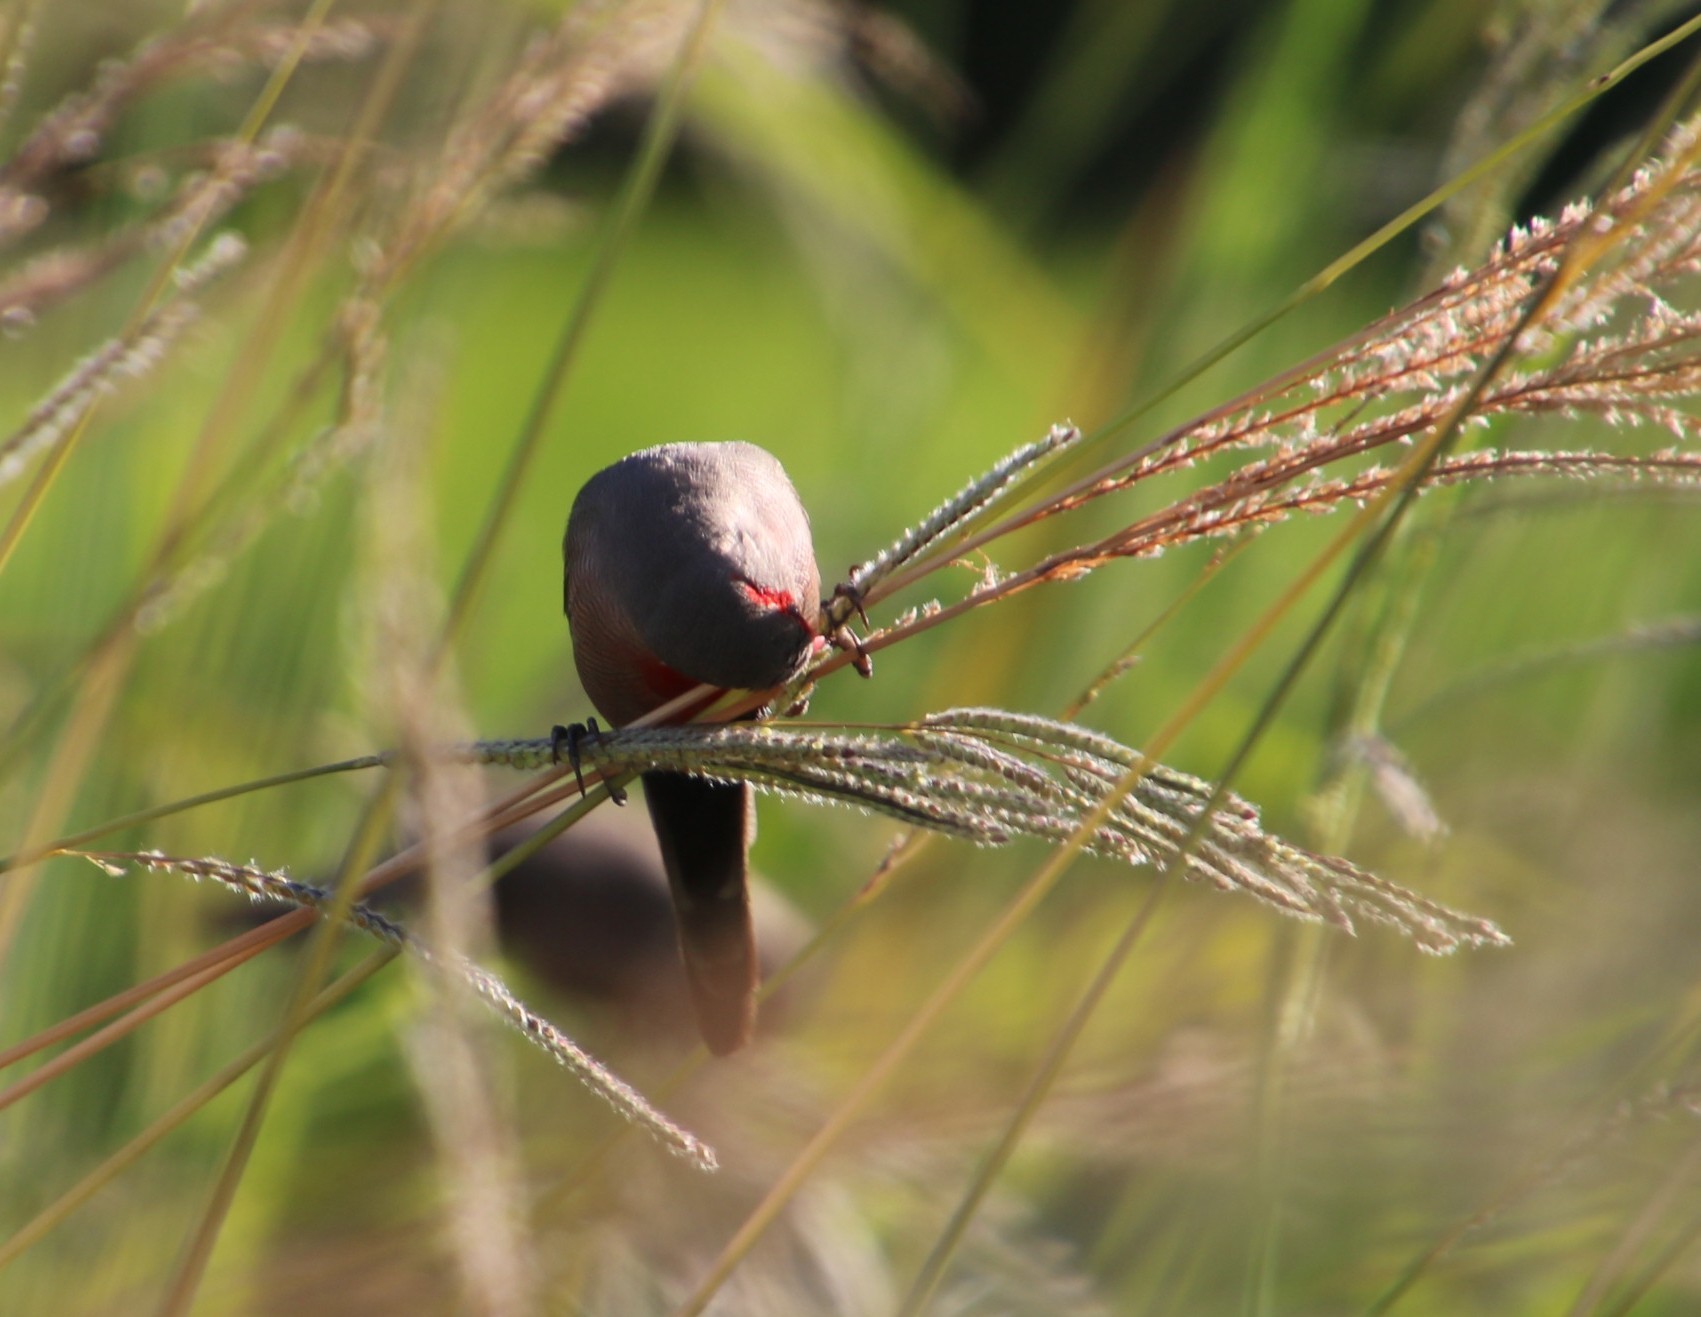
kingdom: Animalia
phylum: Chordata
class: Aves
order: Passeriformes
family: Estrildidae
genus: Estrilda
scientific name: Estrilda astrild
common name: Common waxbill
